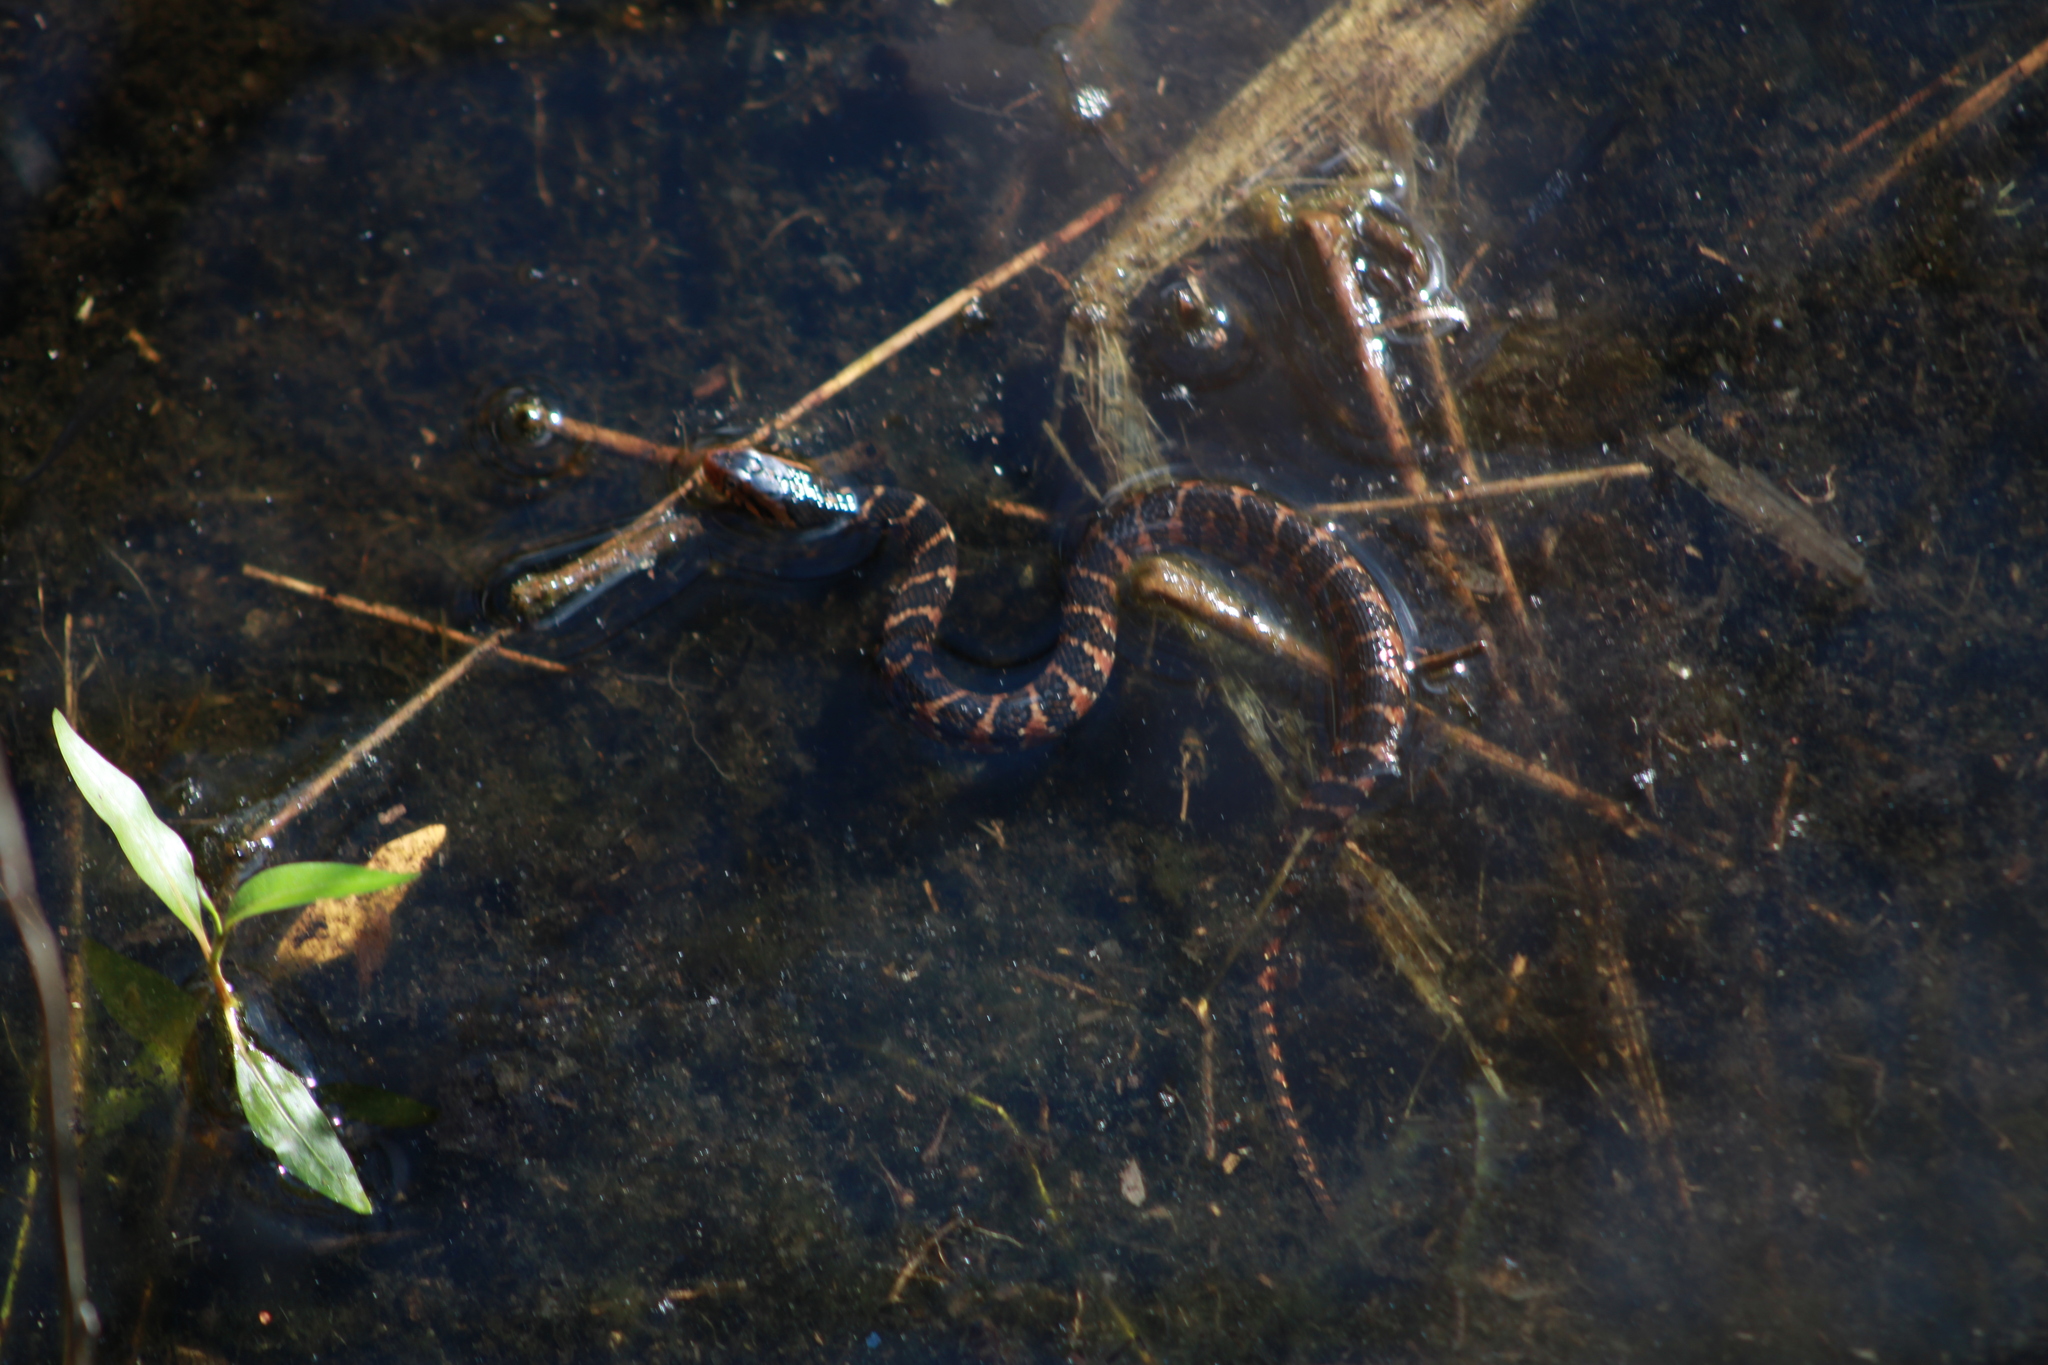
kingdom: Animalia
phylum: Chordata
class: Squamata
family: Colubridae
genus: Nerodia
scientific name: Nerodia fasciata
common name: Southern water snake
